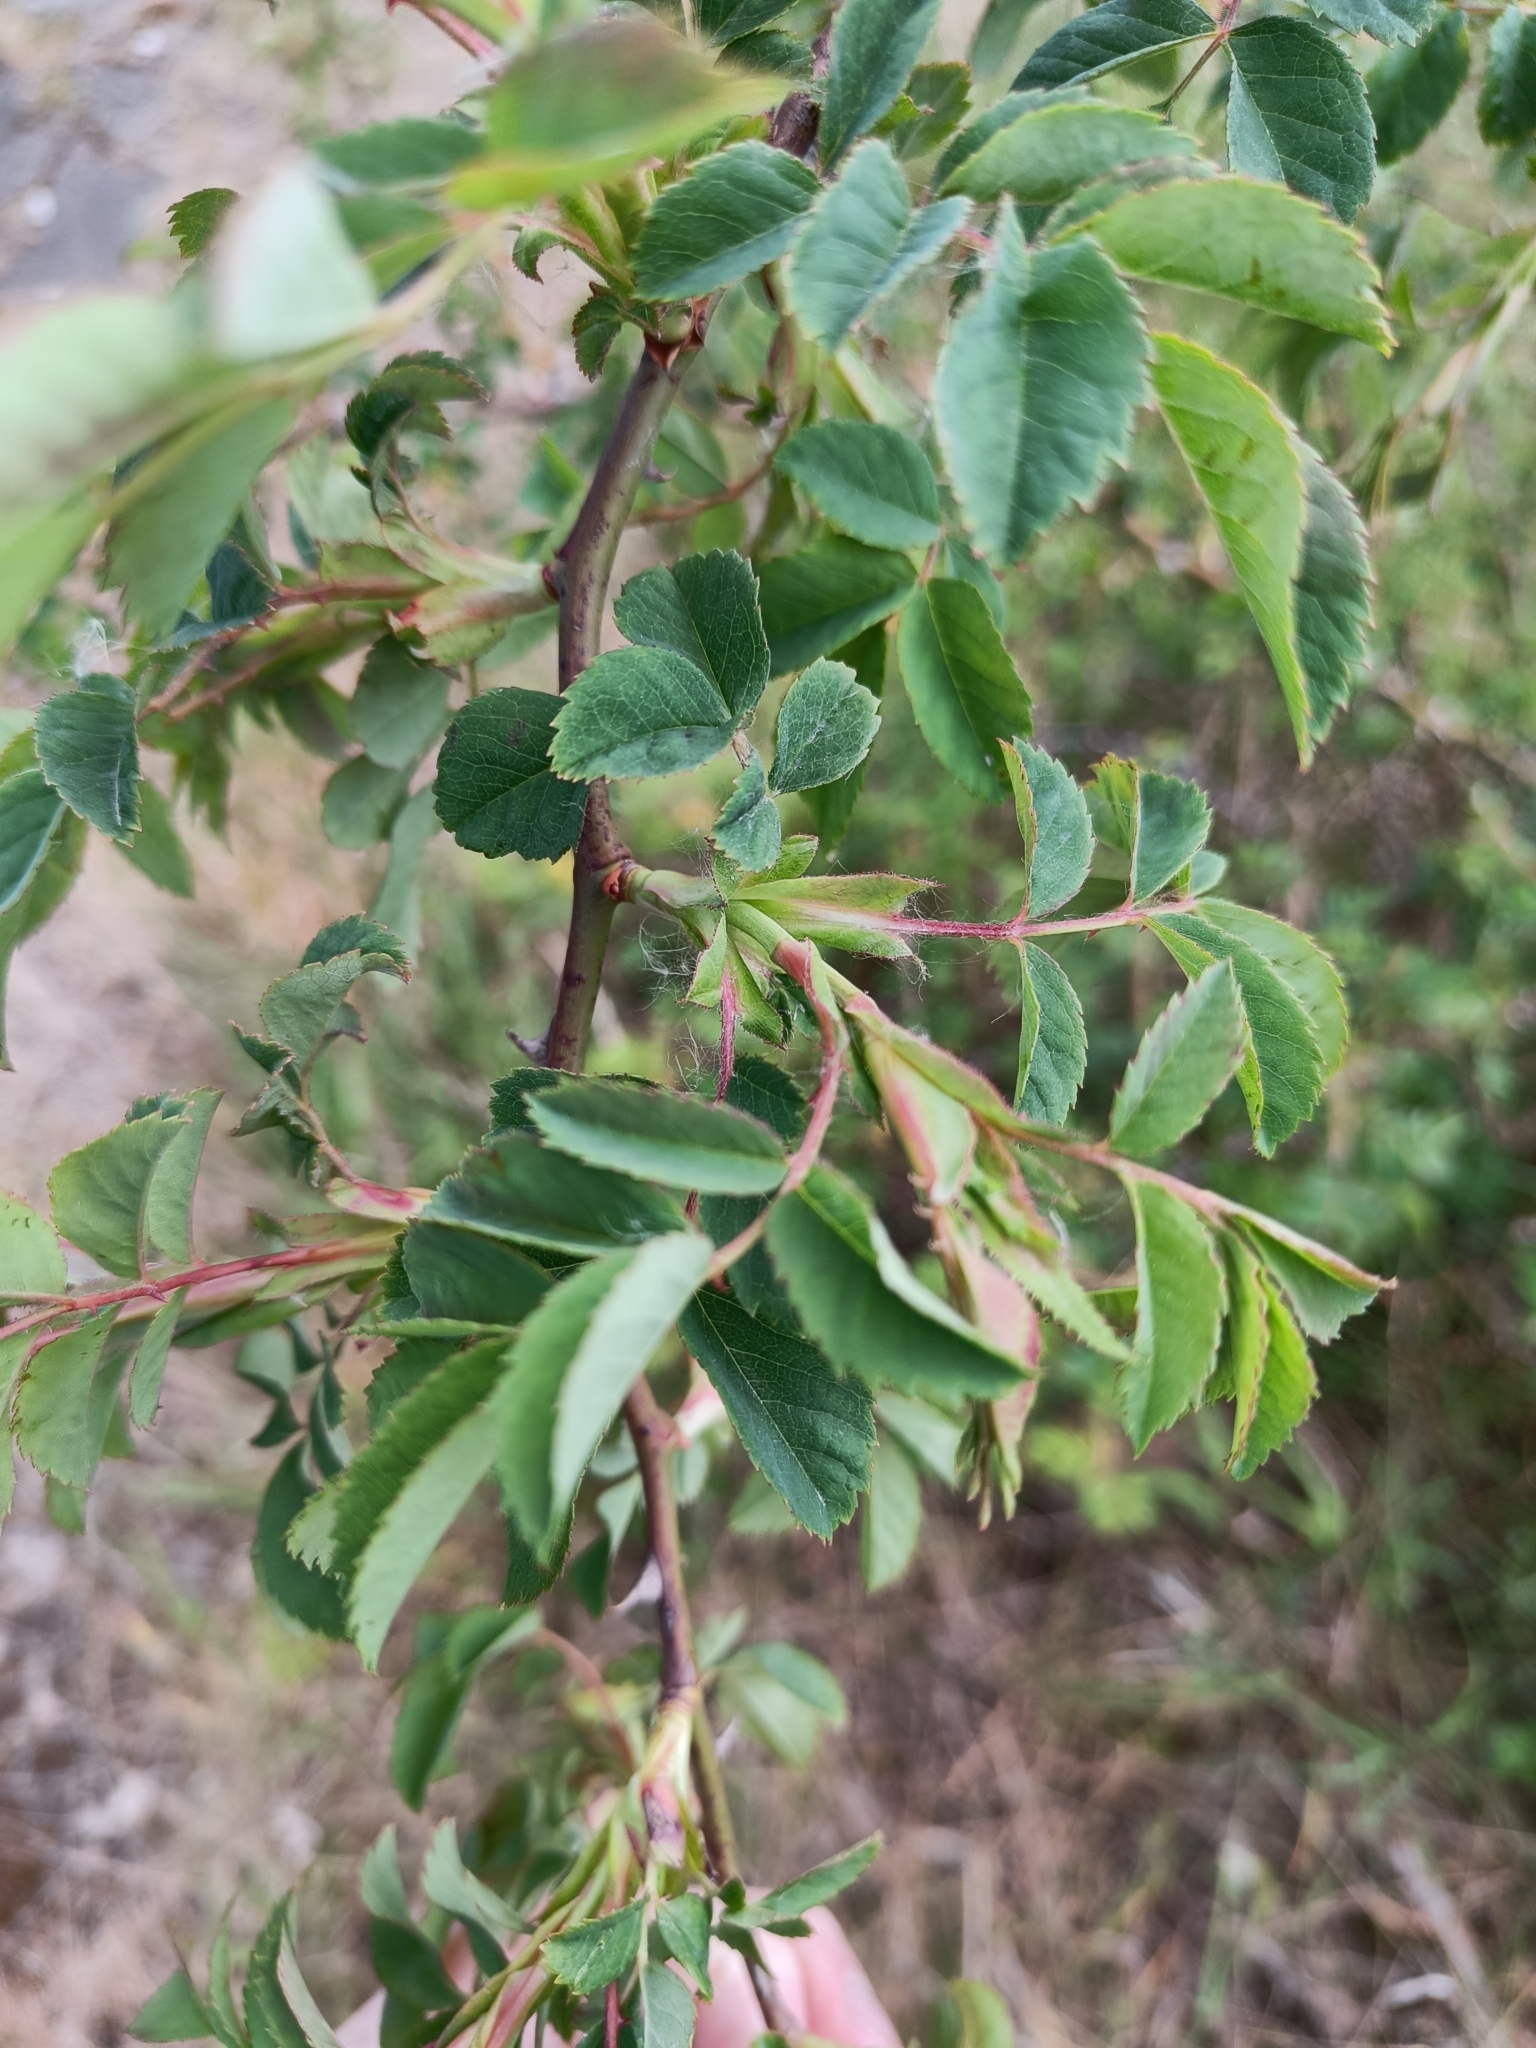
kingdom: Plantae
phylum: Tracheophyta
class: Magnoliopsida
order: Rosales
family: Rosaceae
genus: Sorbus
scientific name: Sorbus aucuparia
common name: Rowan
